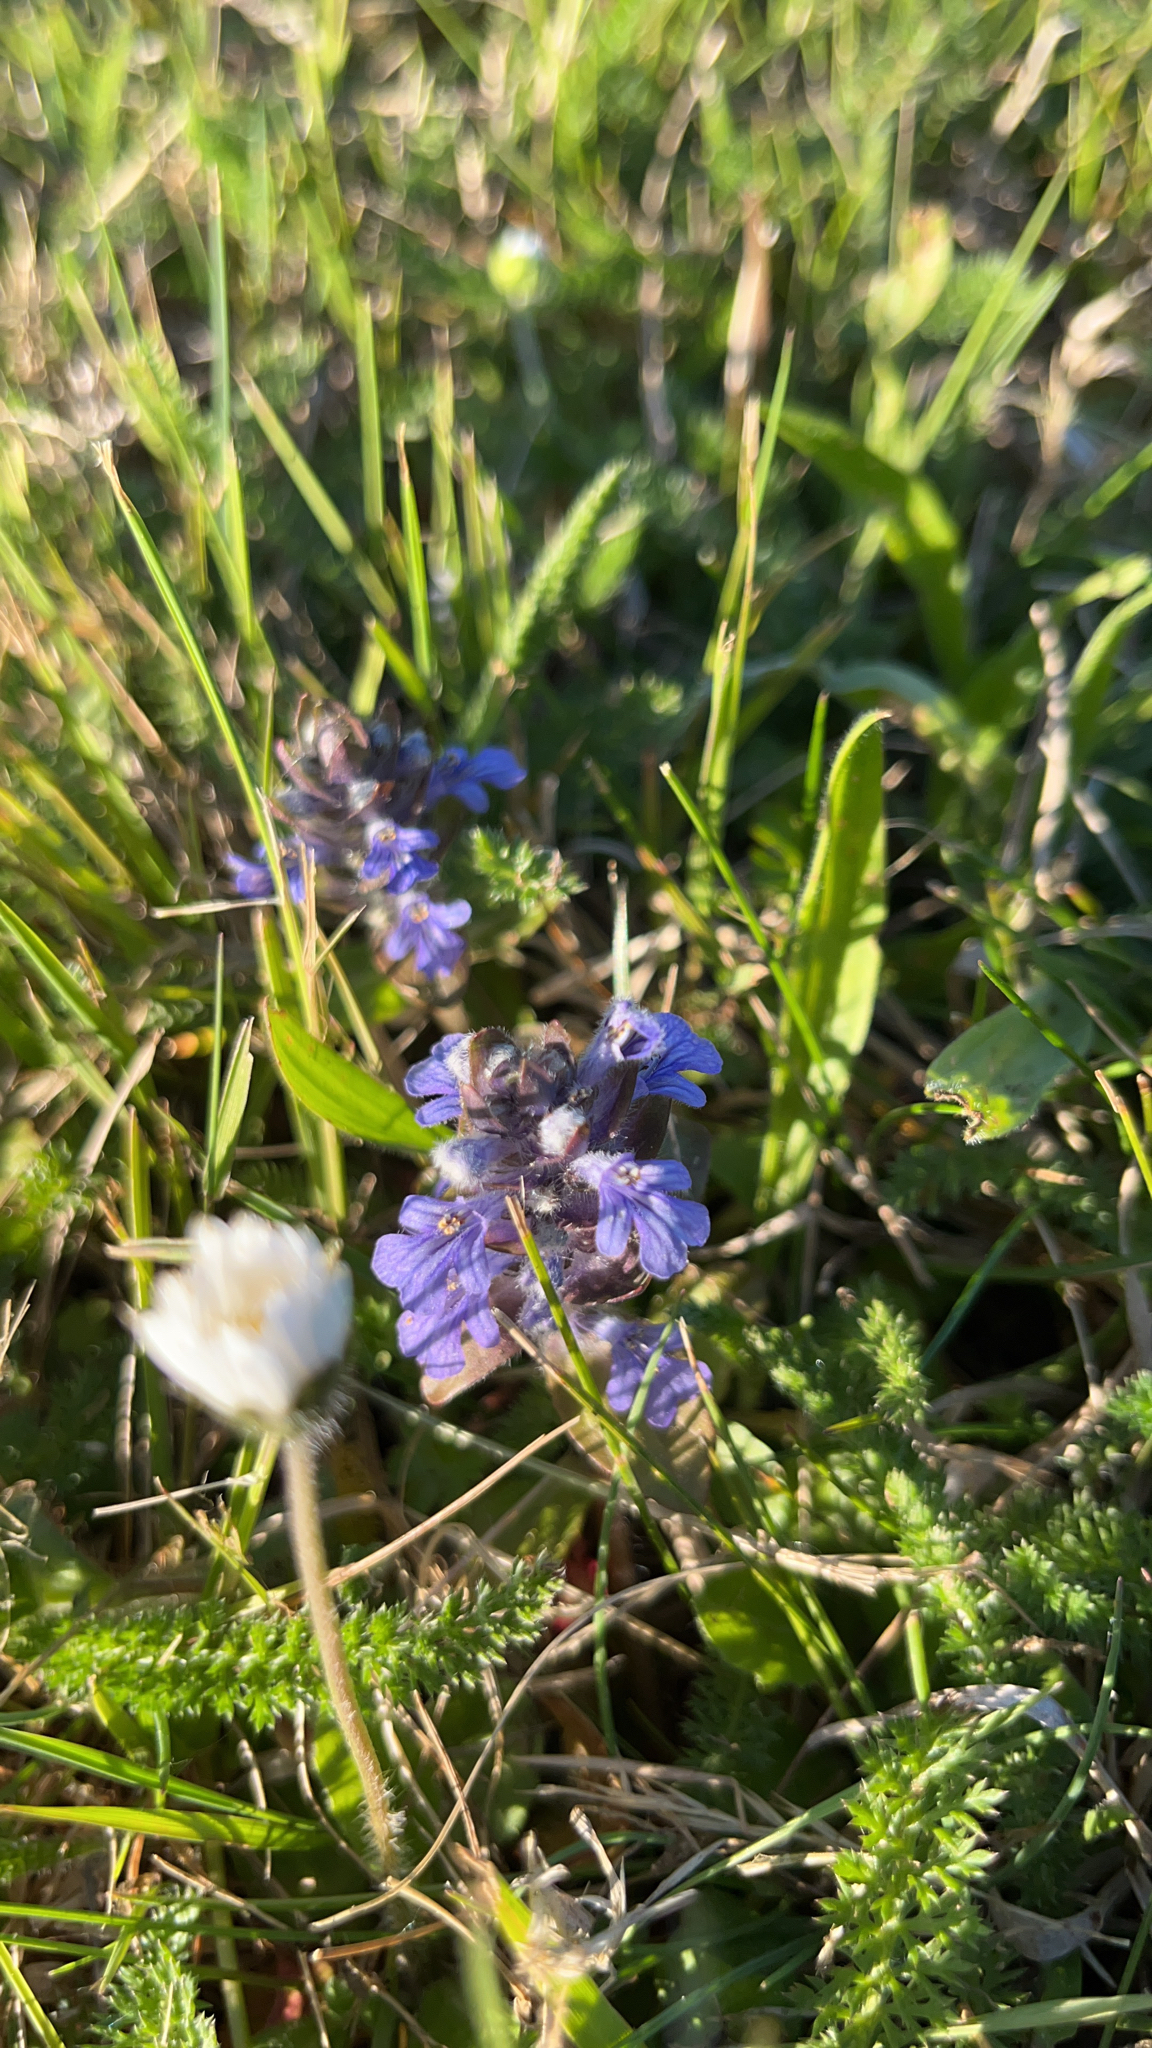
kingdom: Plantae
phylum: Tracheophyta
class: Magnoliopsida
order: Lamiales
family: Lamiaceae
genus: Ajuga
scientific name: Ajuga reptans
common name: Bugle
